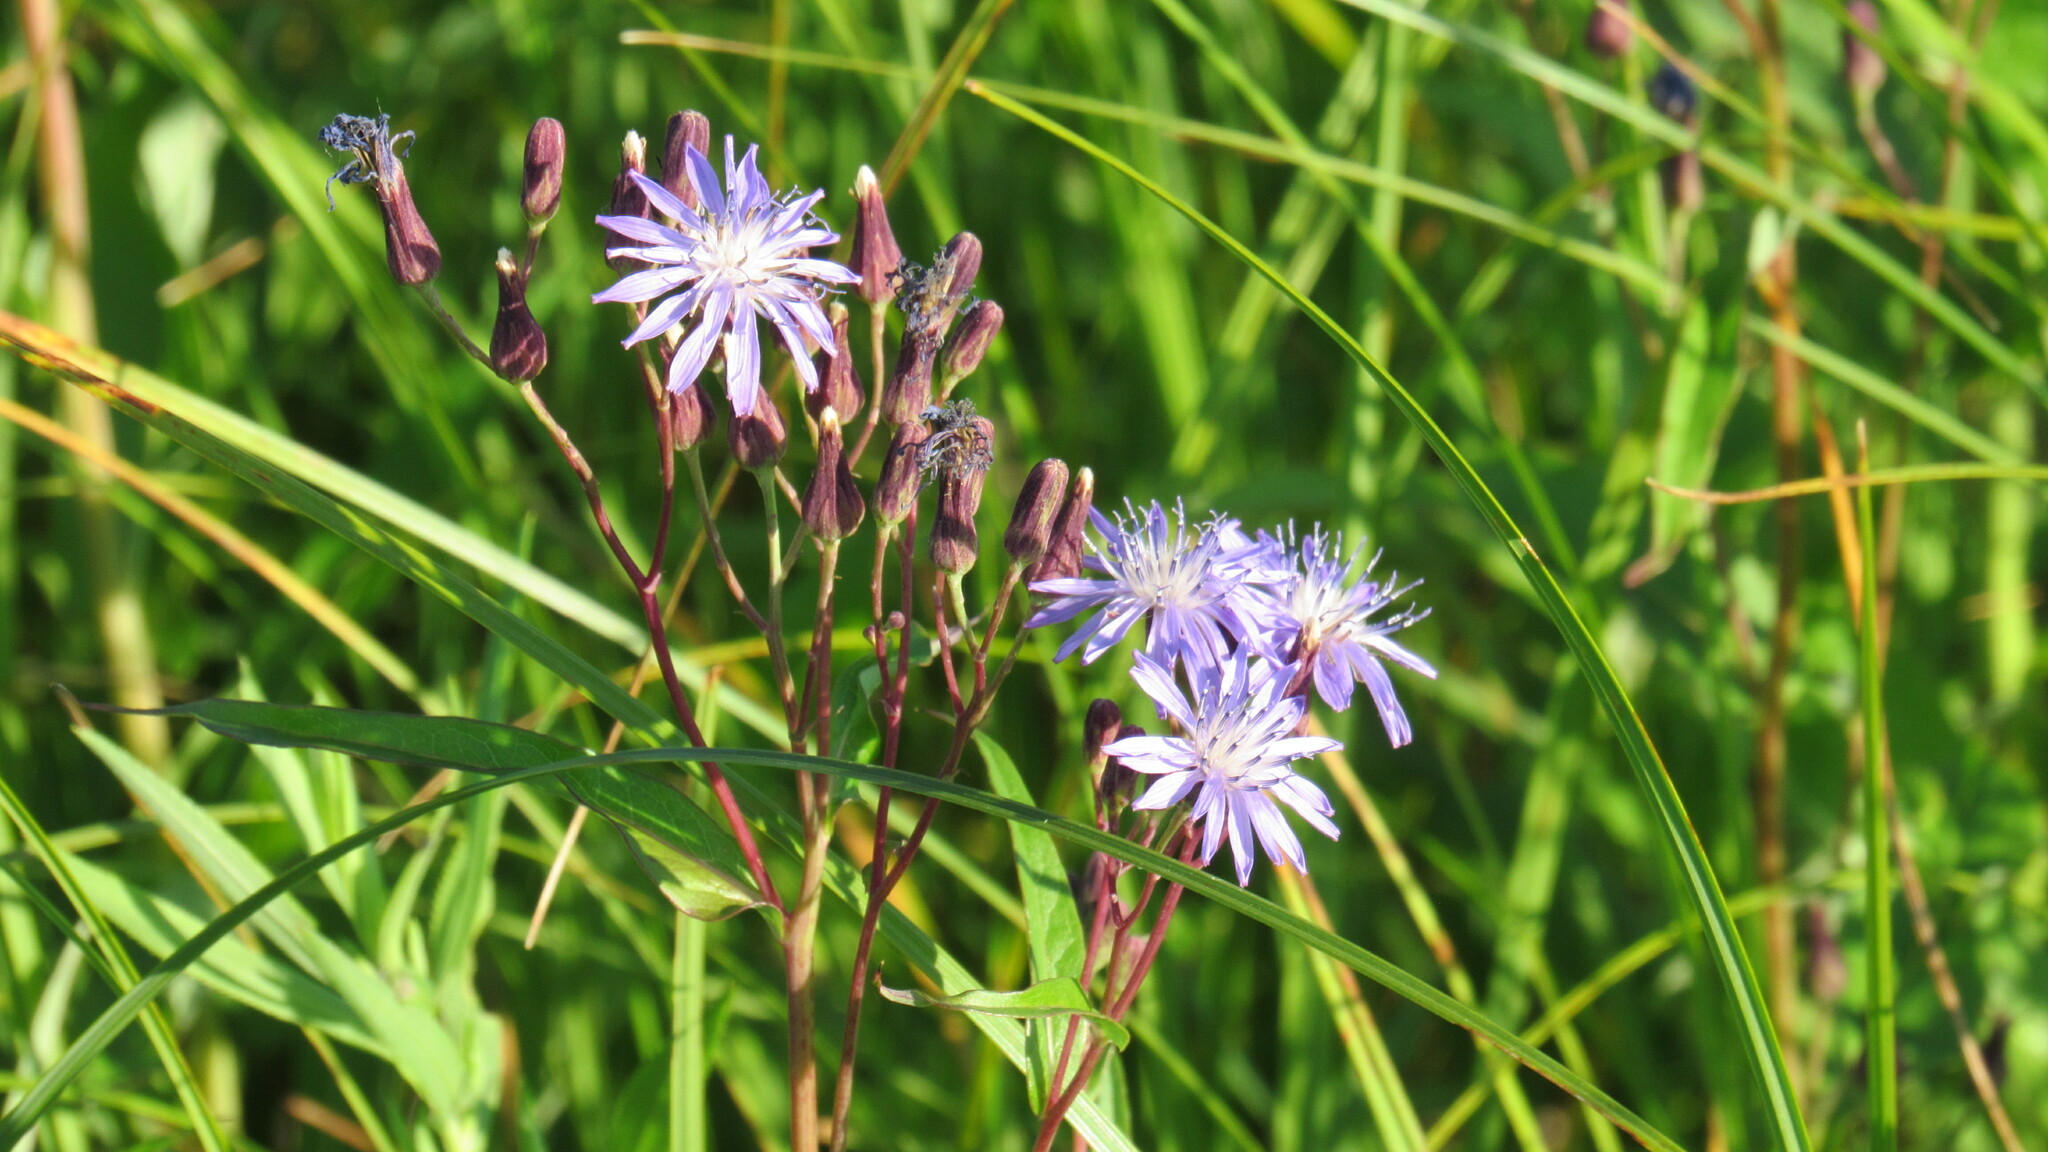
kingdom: Plantae
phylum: Tracheophyta
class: Magnoliopsida
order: Asterales
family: Asteraceae
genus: Lactuca
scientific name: Lactuca sibirica
